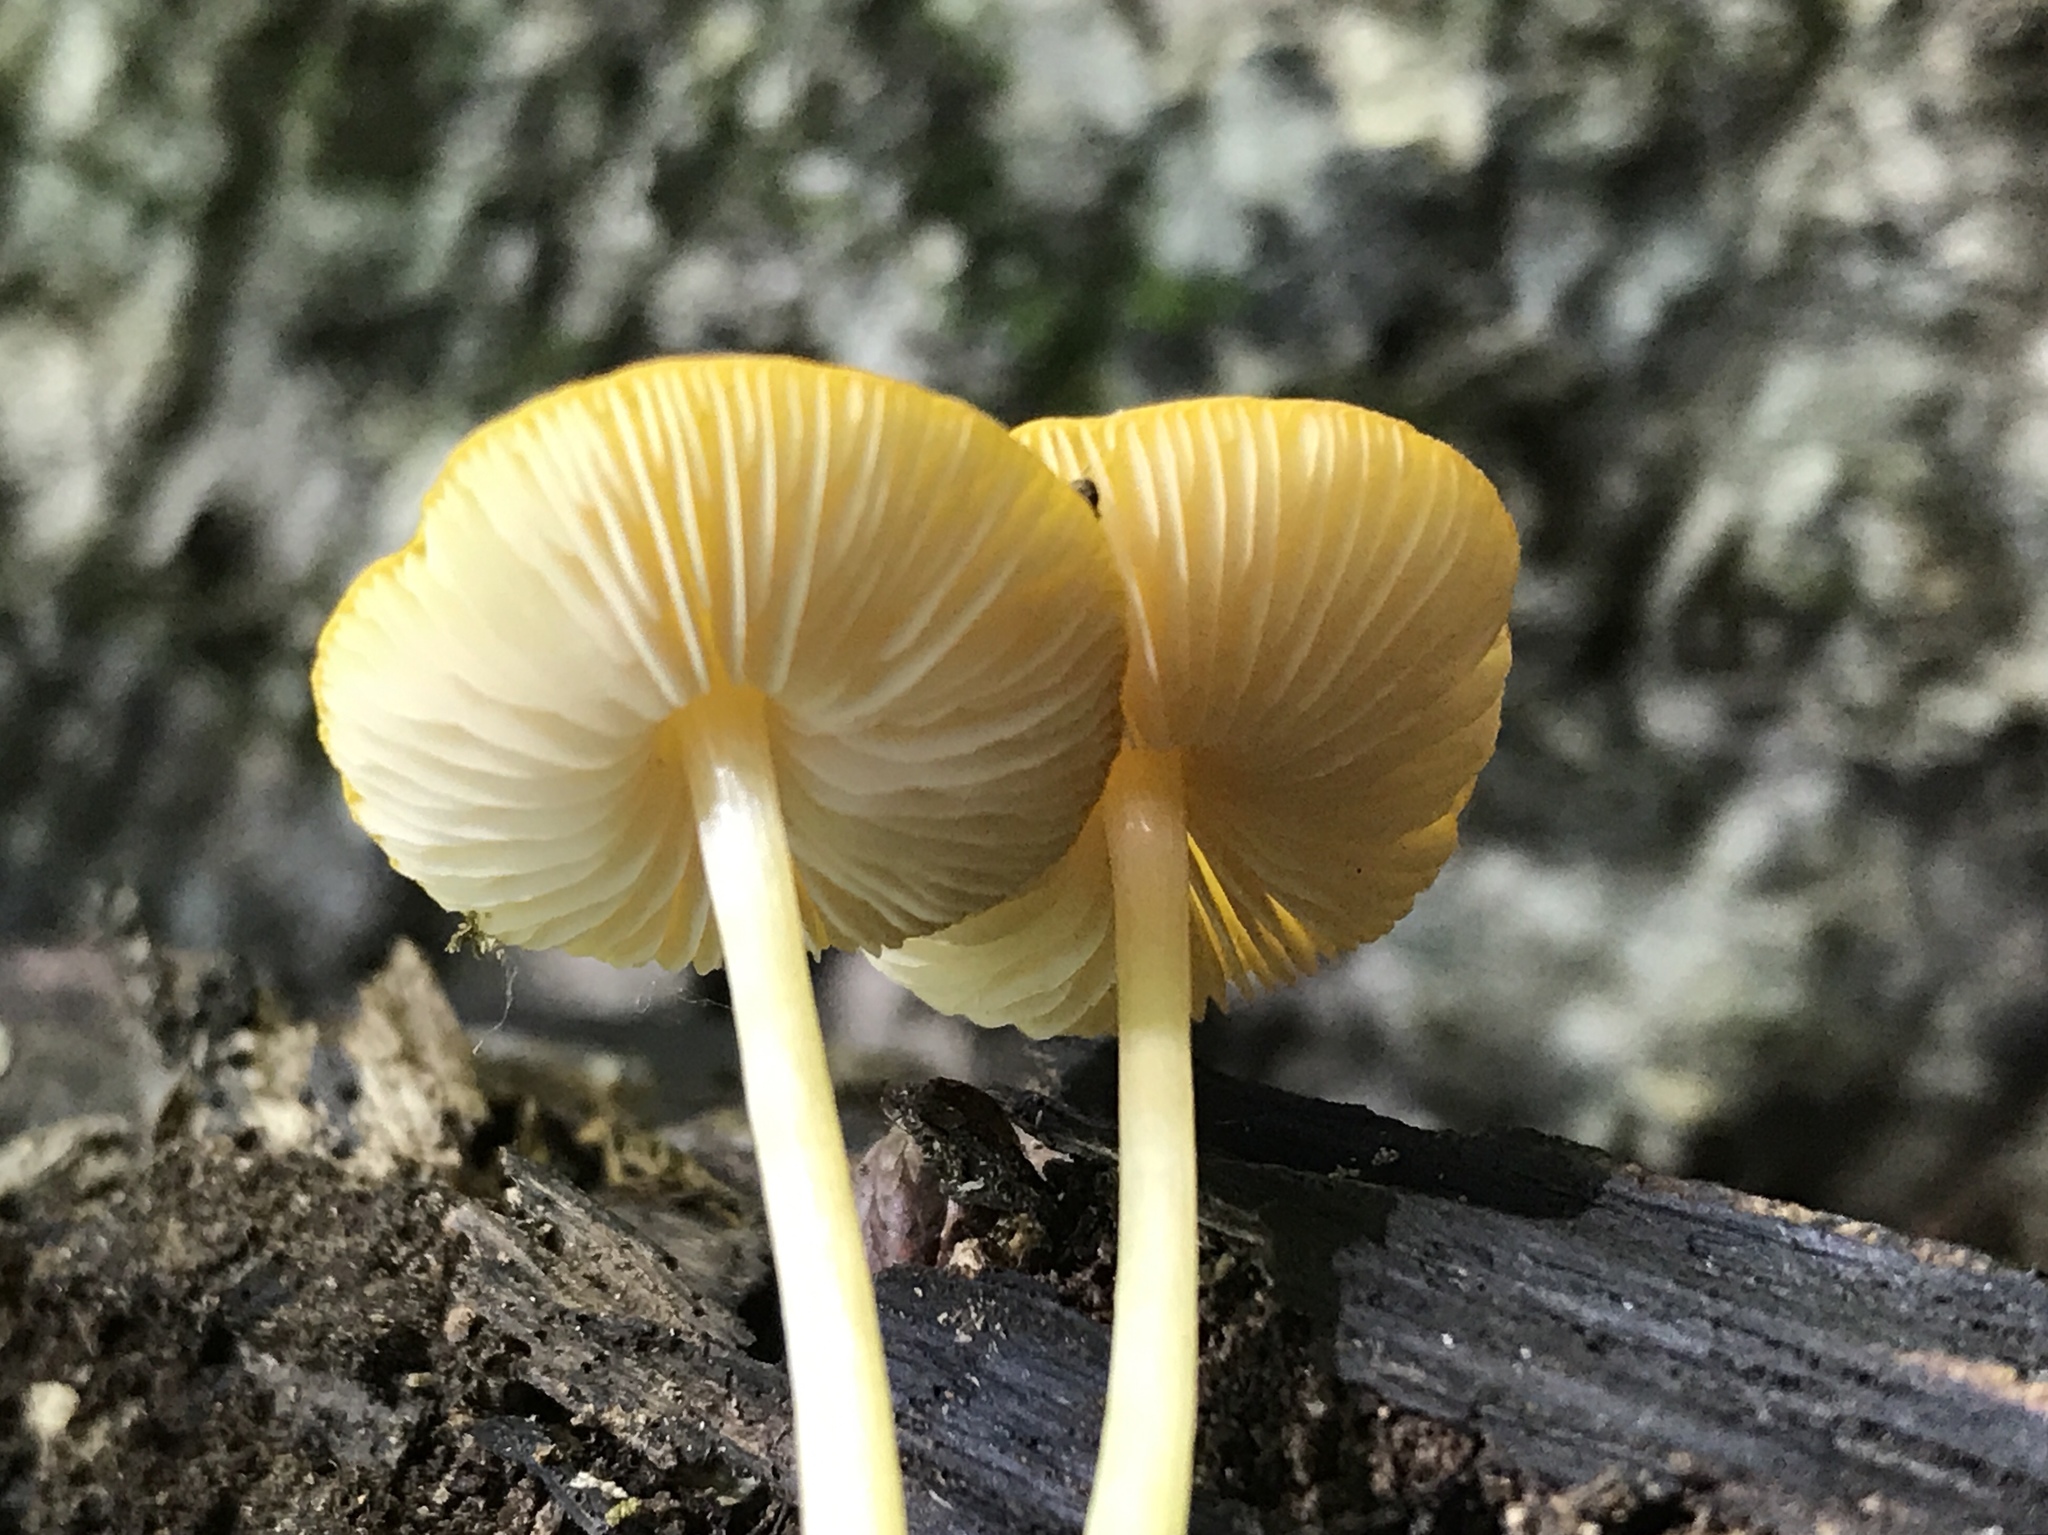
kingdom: Fungi
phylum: Basidiomycota
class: Agaricomycetes
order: Agaricales
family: Pluteaceae
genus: Pluteus
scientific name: Pluteus chrysophlebius
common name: Yellow deer mushroom
